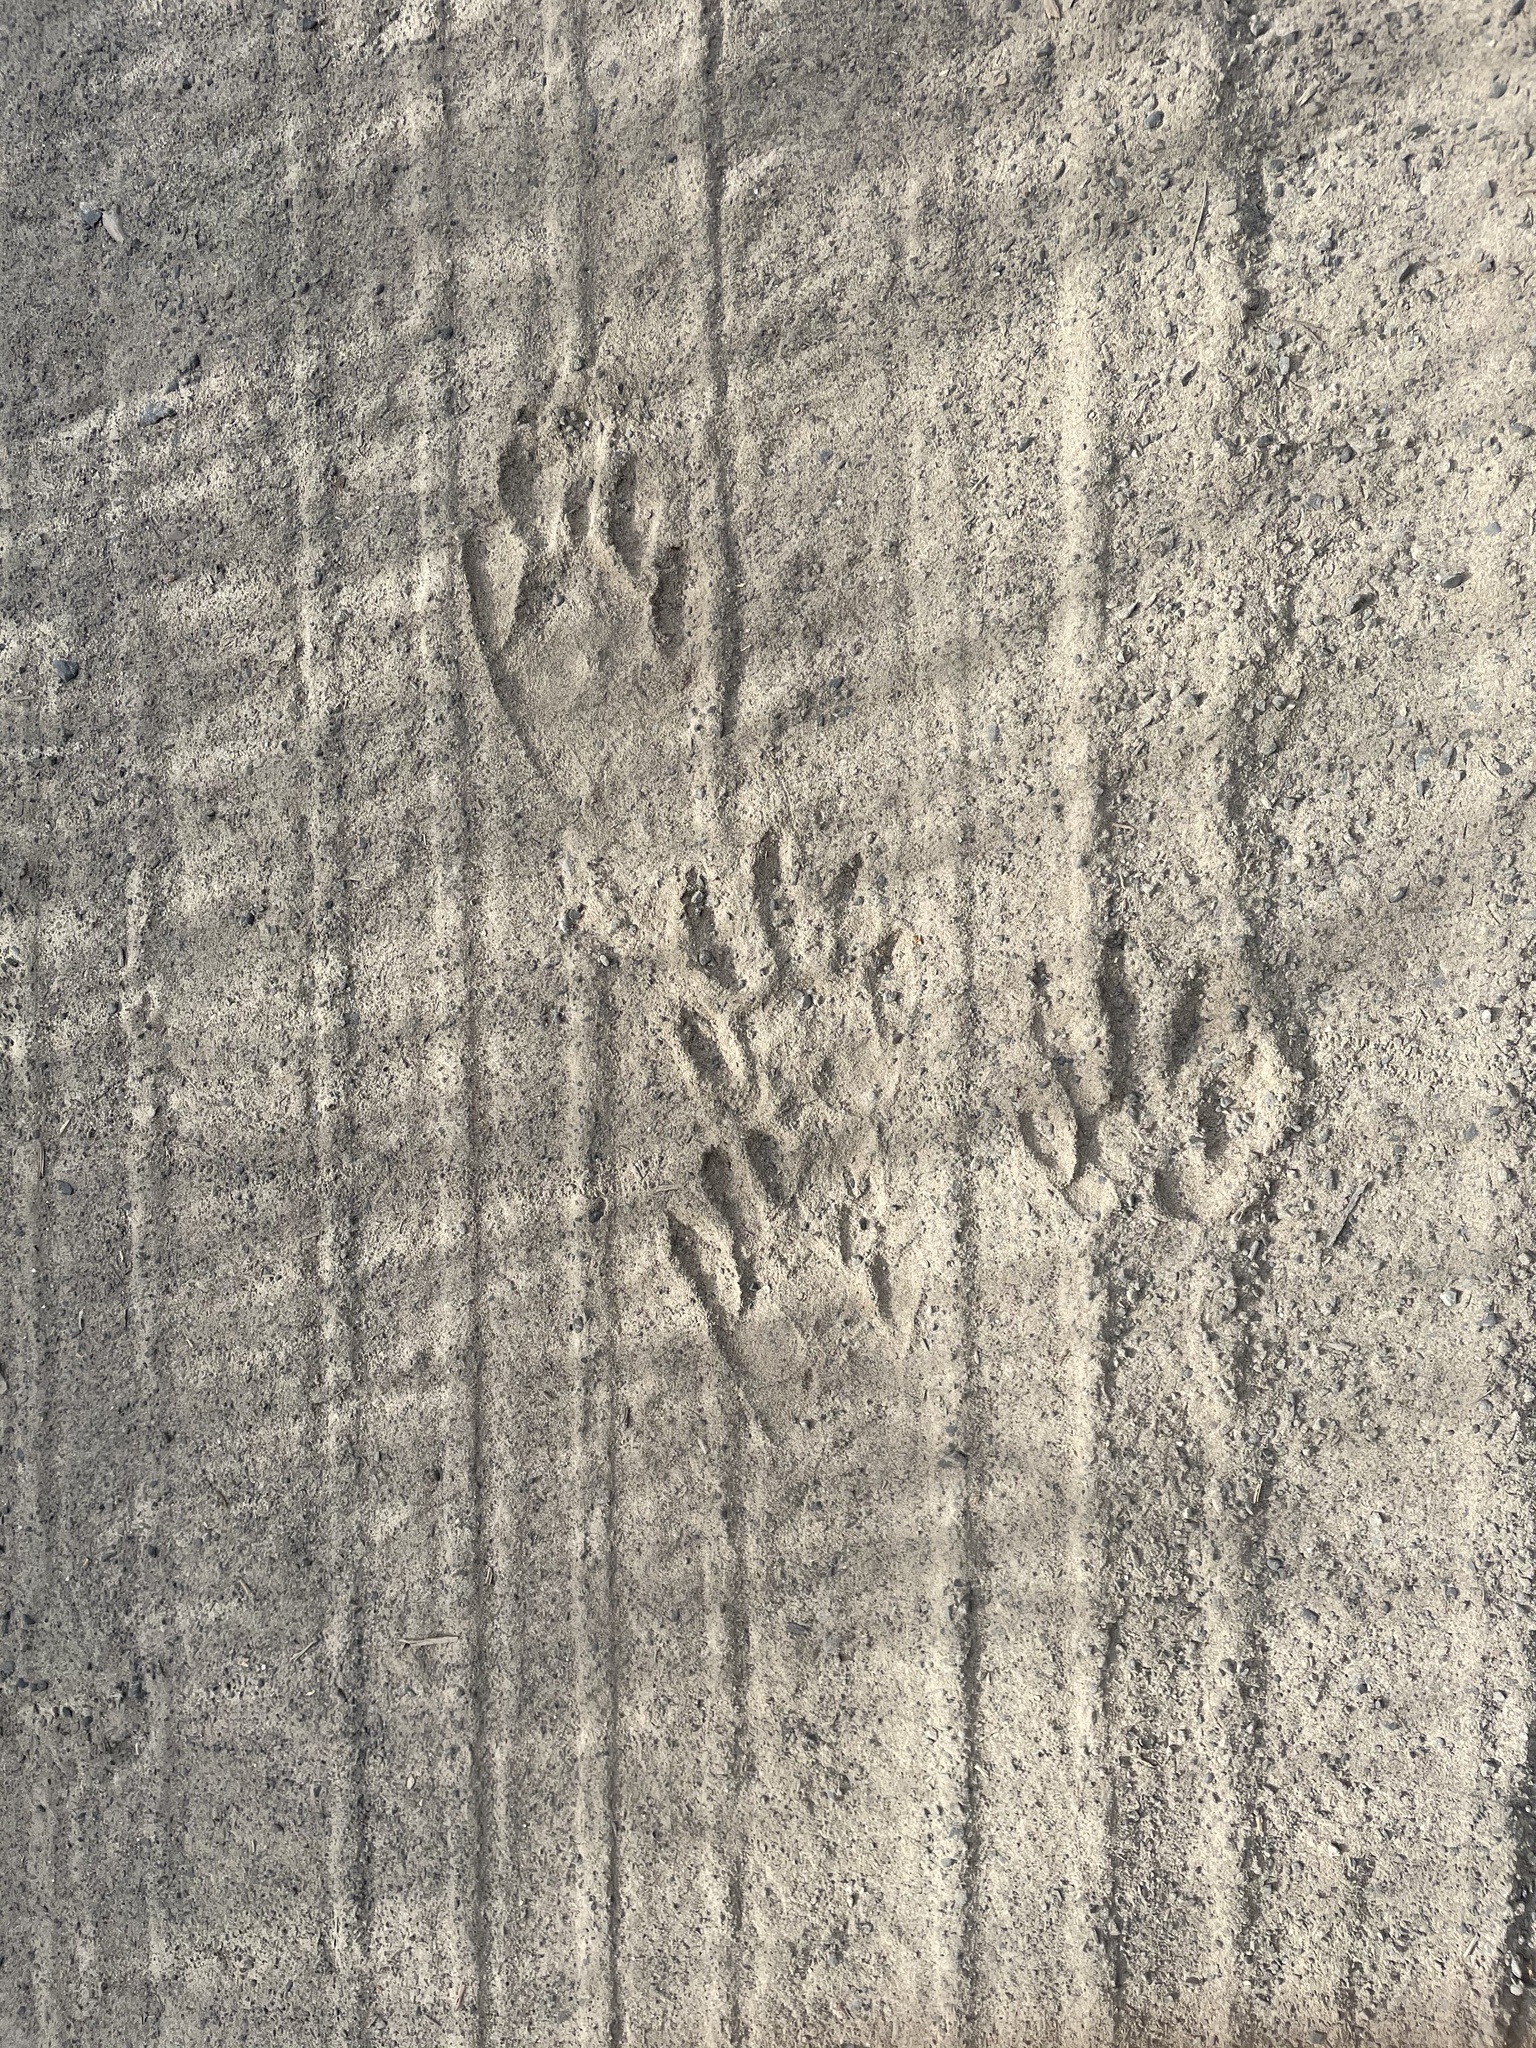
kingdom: Animalia
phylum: Chordata
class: Mammalia
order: Carnivora
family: Procyonidae
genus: Procyon
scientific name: Procyon lotor
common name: Raccoon
